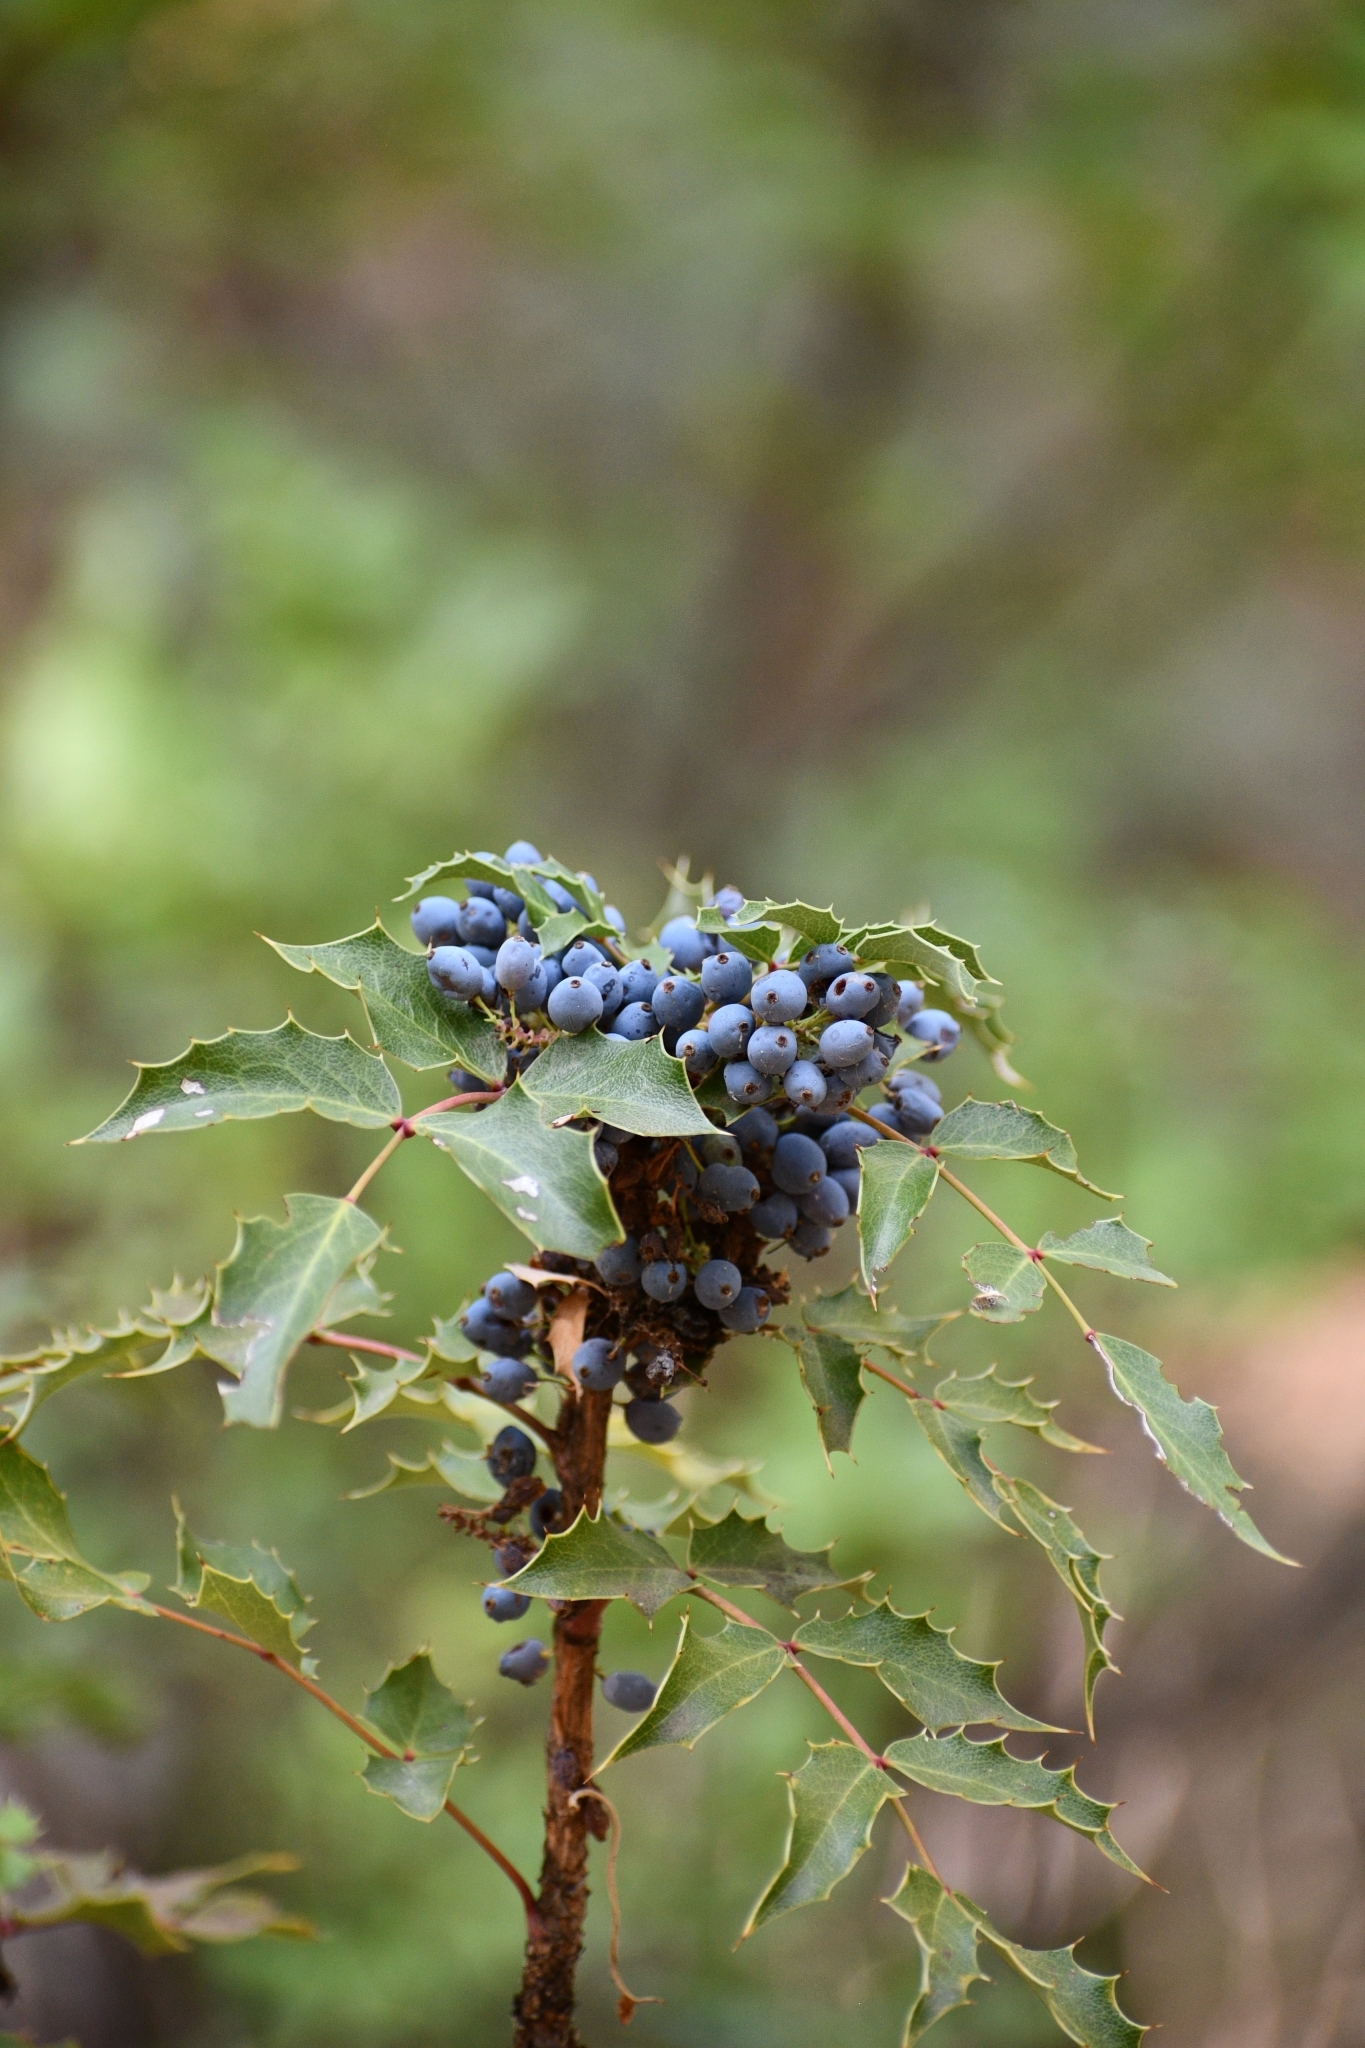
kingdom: Plantae
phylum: Tracheophyta
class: Magnoliopsida
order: Ranunculales
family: Berberidaceae
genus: Mahonia
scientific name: Mahonia wilcoxii
